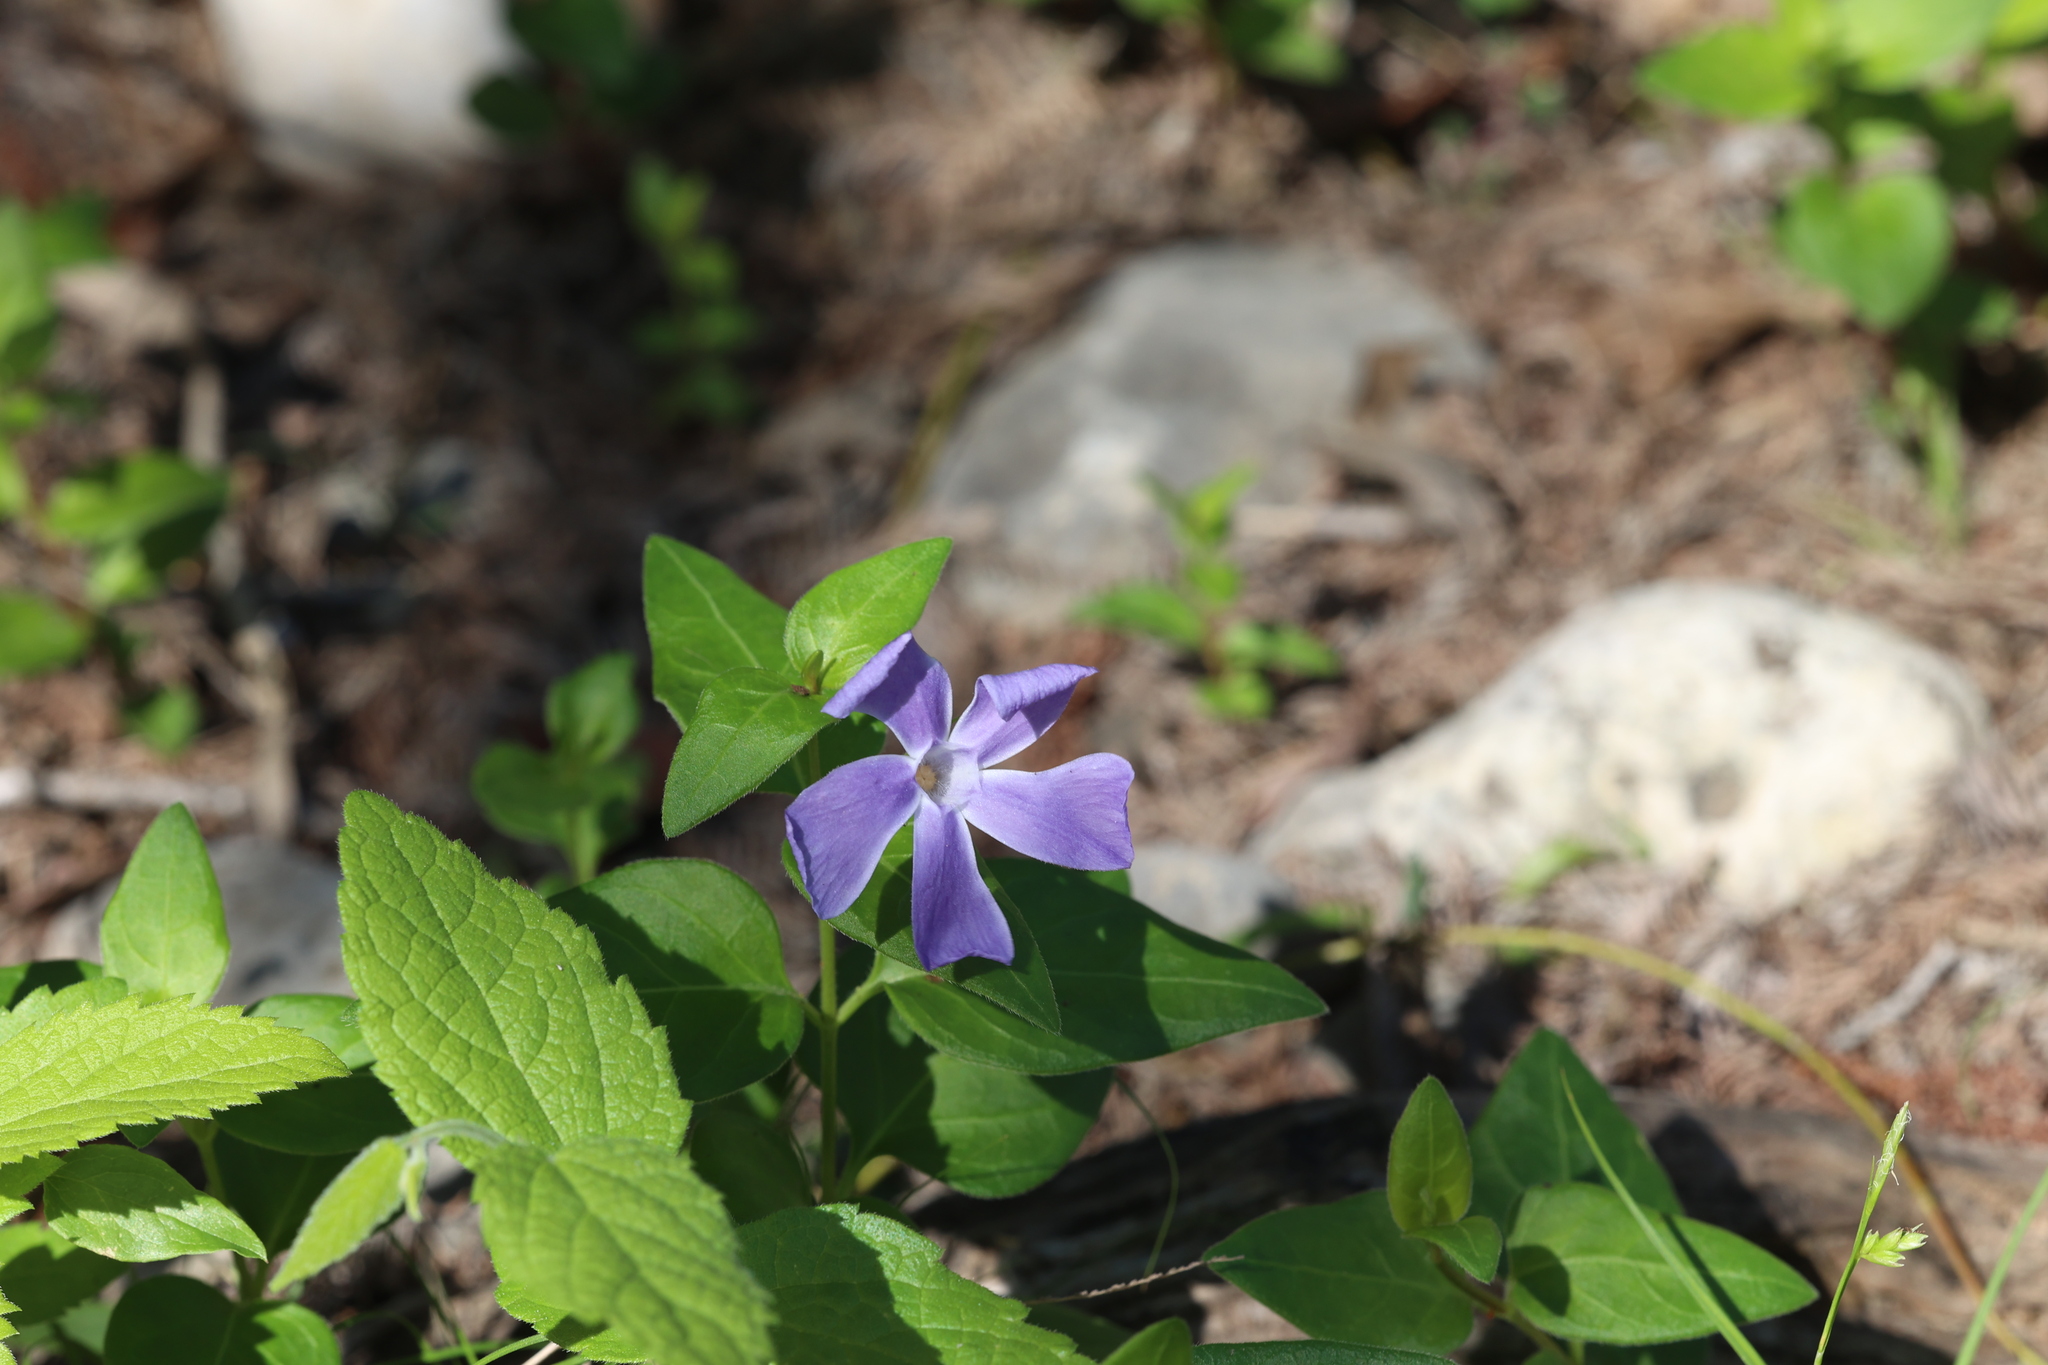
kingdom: Plantae
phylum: Tracheophyta
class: Magnoliopsida
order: Gentianales
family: Apocynaceae
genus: Vinca
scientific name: Vinca major
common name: Greater periwinkle
